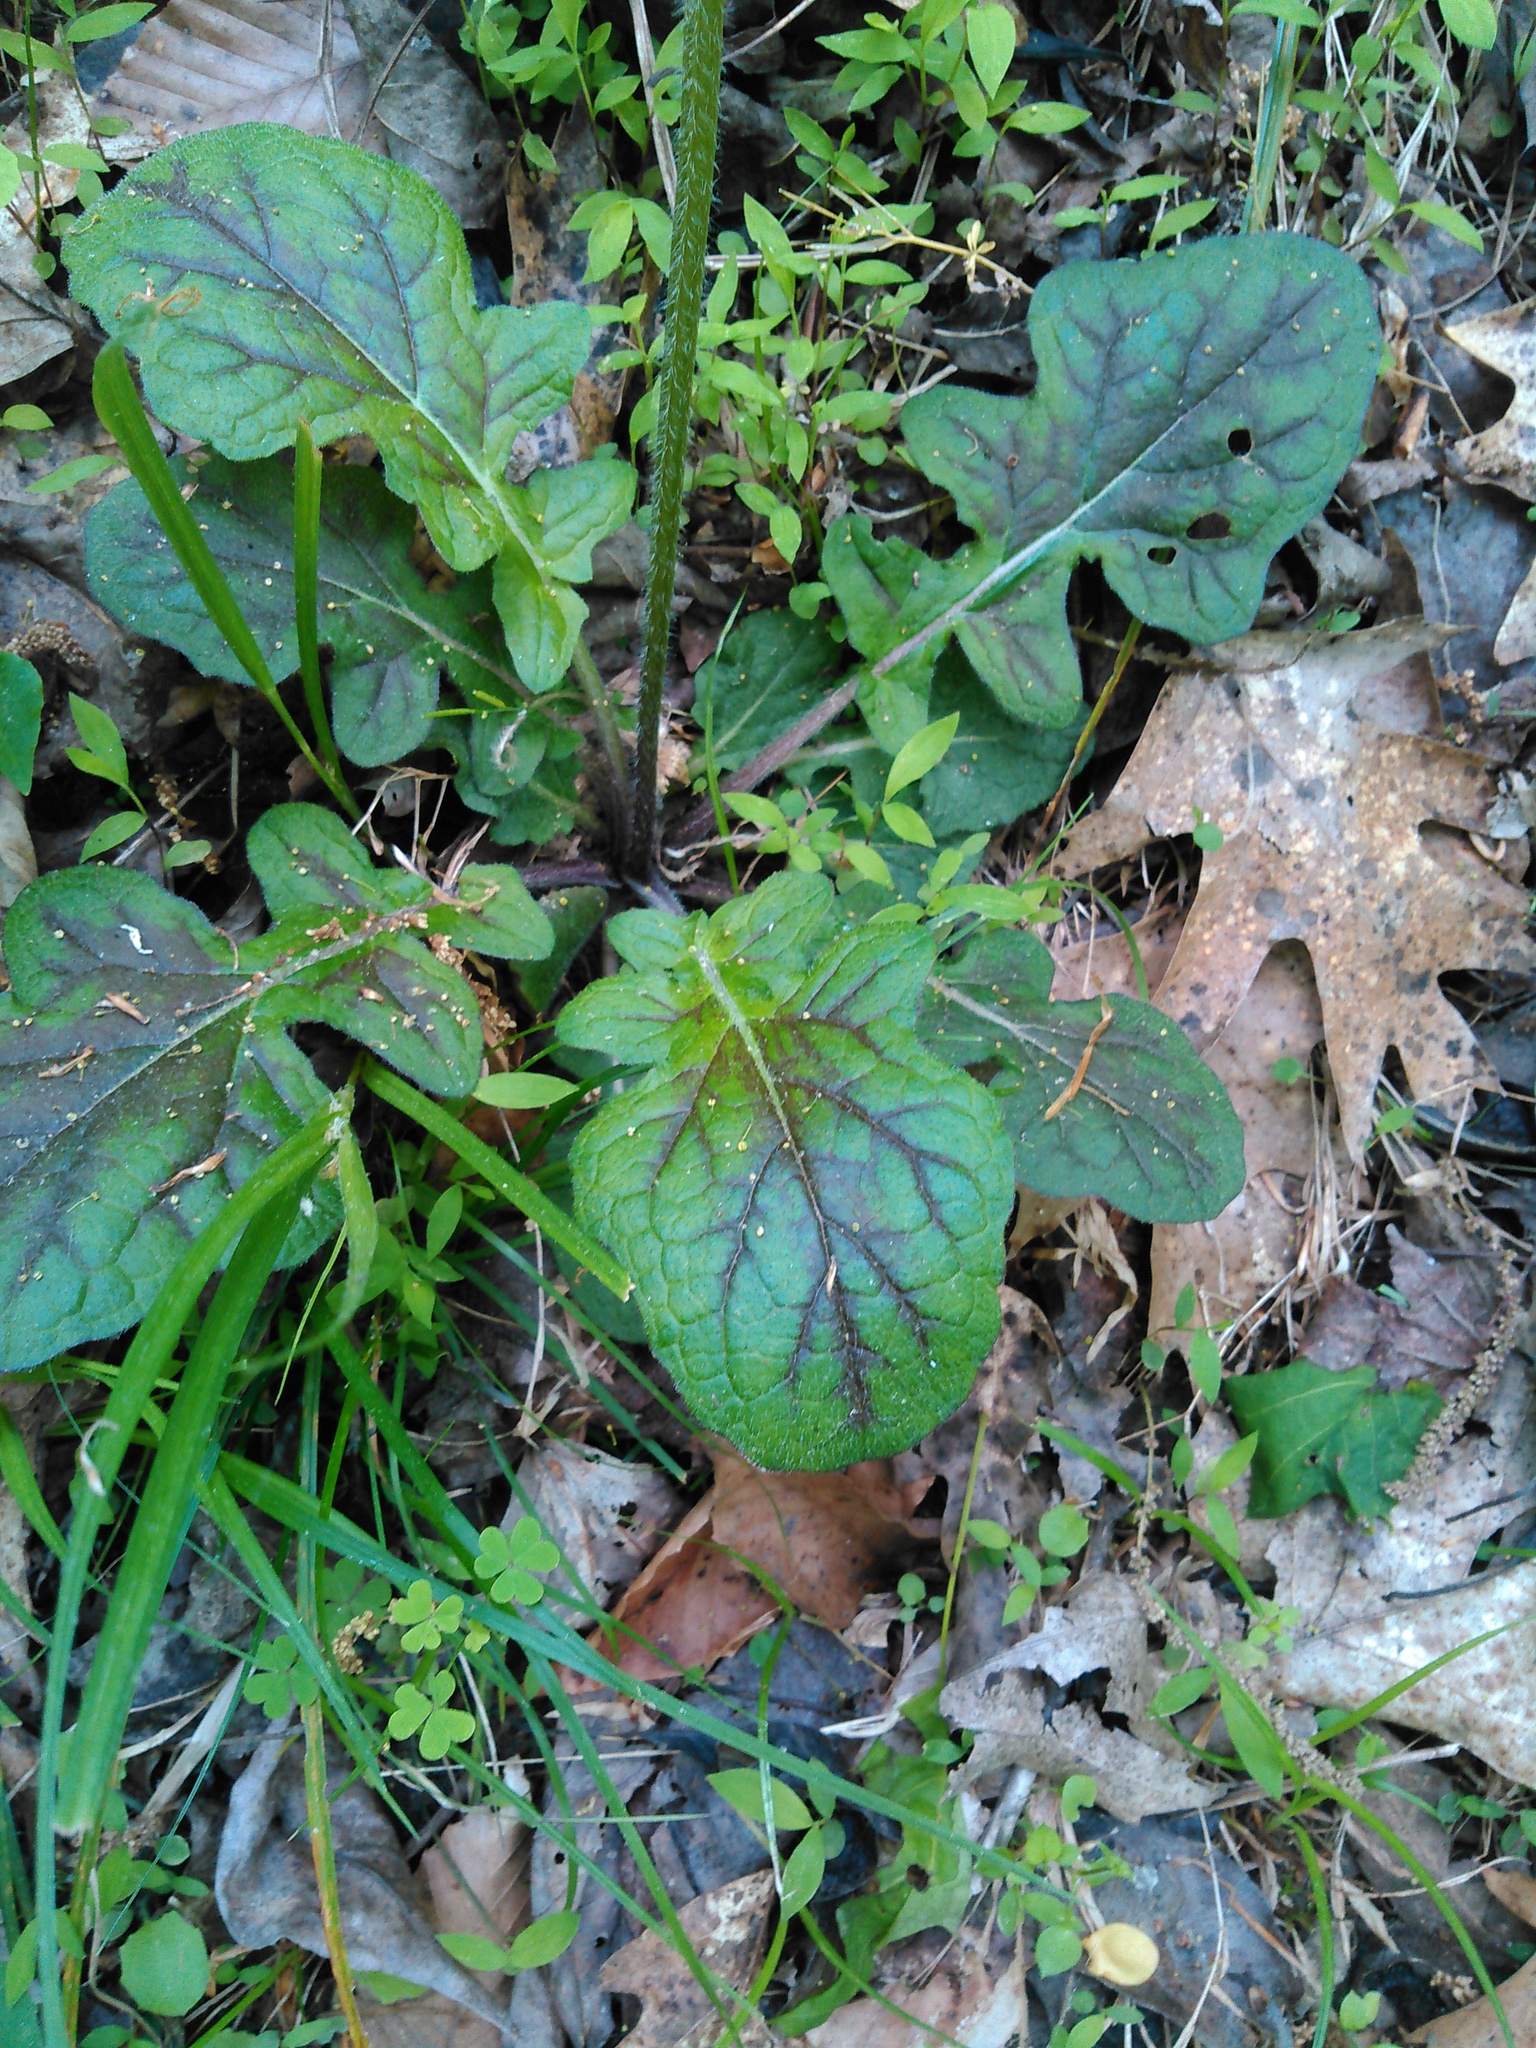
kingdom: Plantae
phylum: Tracheophyta
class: Magnoliopsida
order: Lamiales
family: Lamiaceae
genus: Salvia
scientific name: Salvia lyrata
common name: Cancerweed
